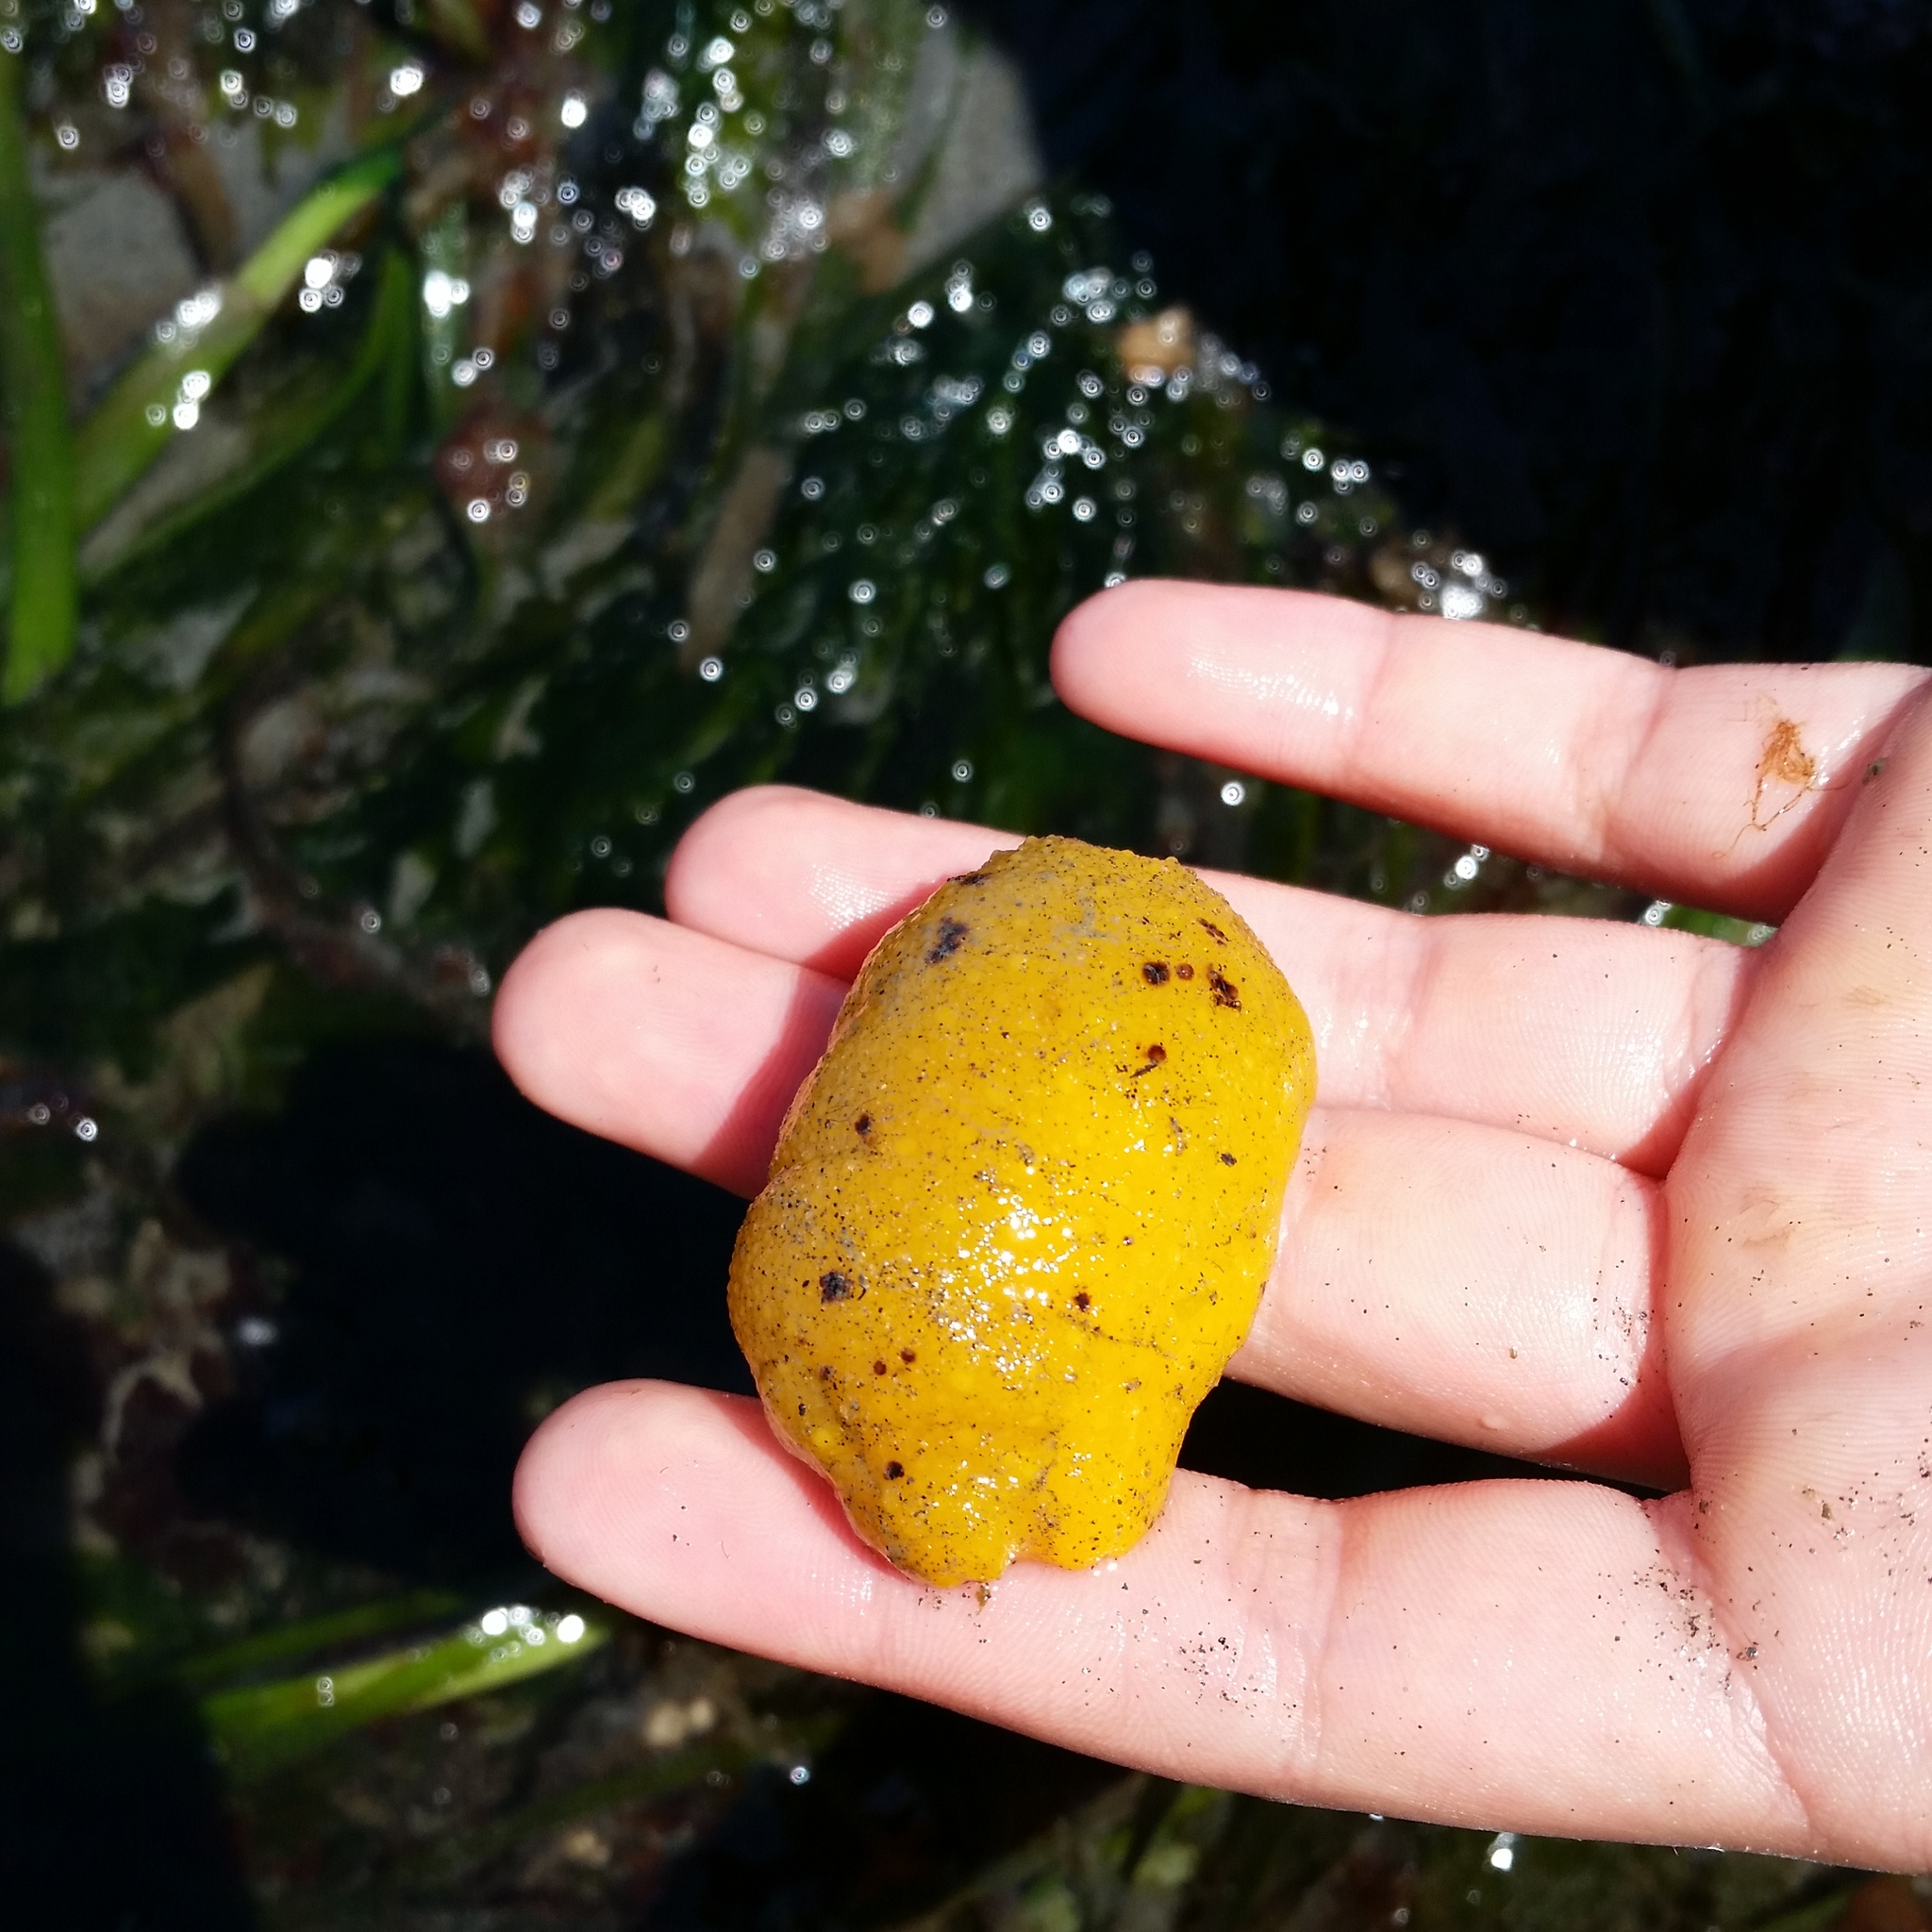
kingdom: Animalia
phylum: Mollusca
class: Gastropoda
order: Nudibranchia
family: Dorididae
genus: Doris
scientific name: Doris montereyensis
